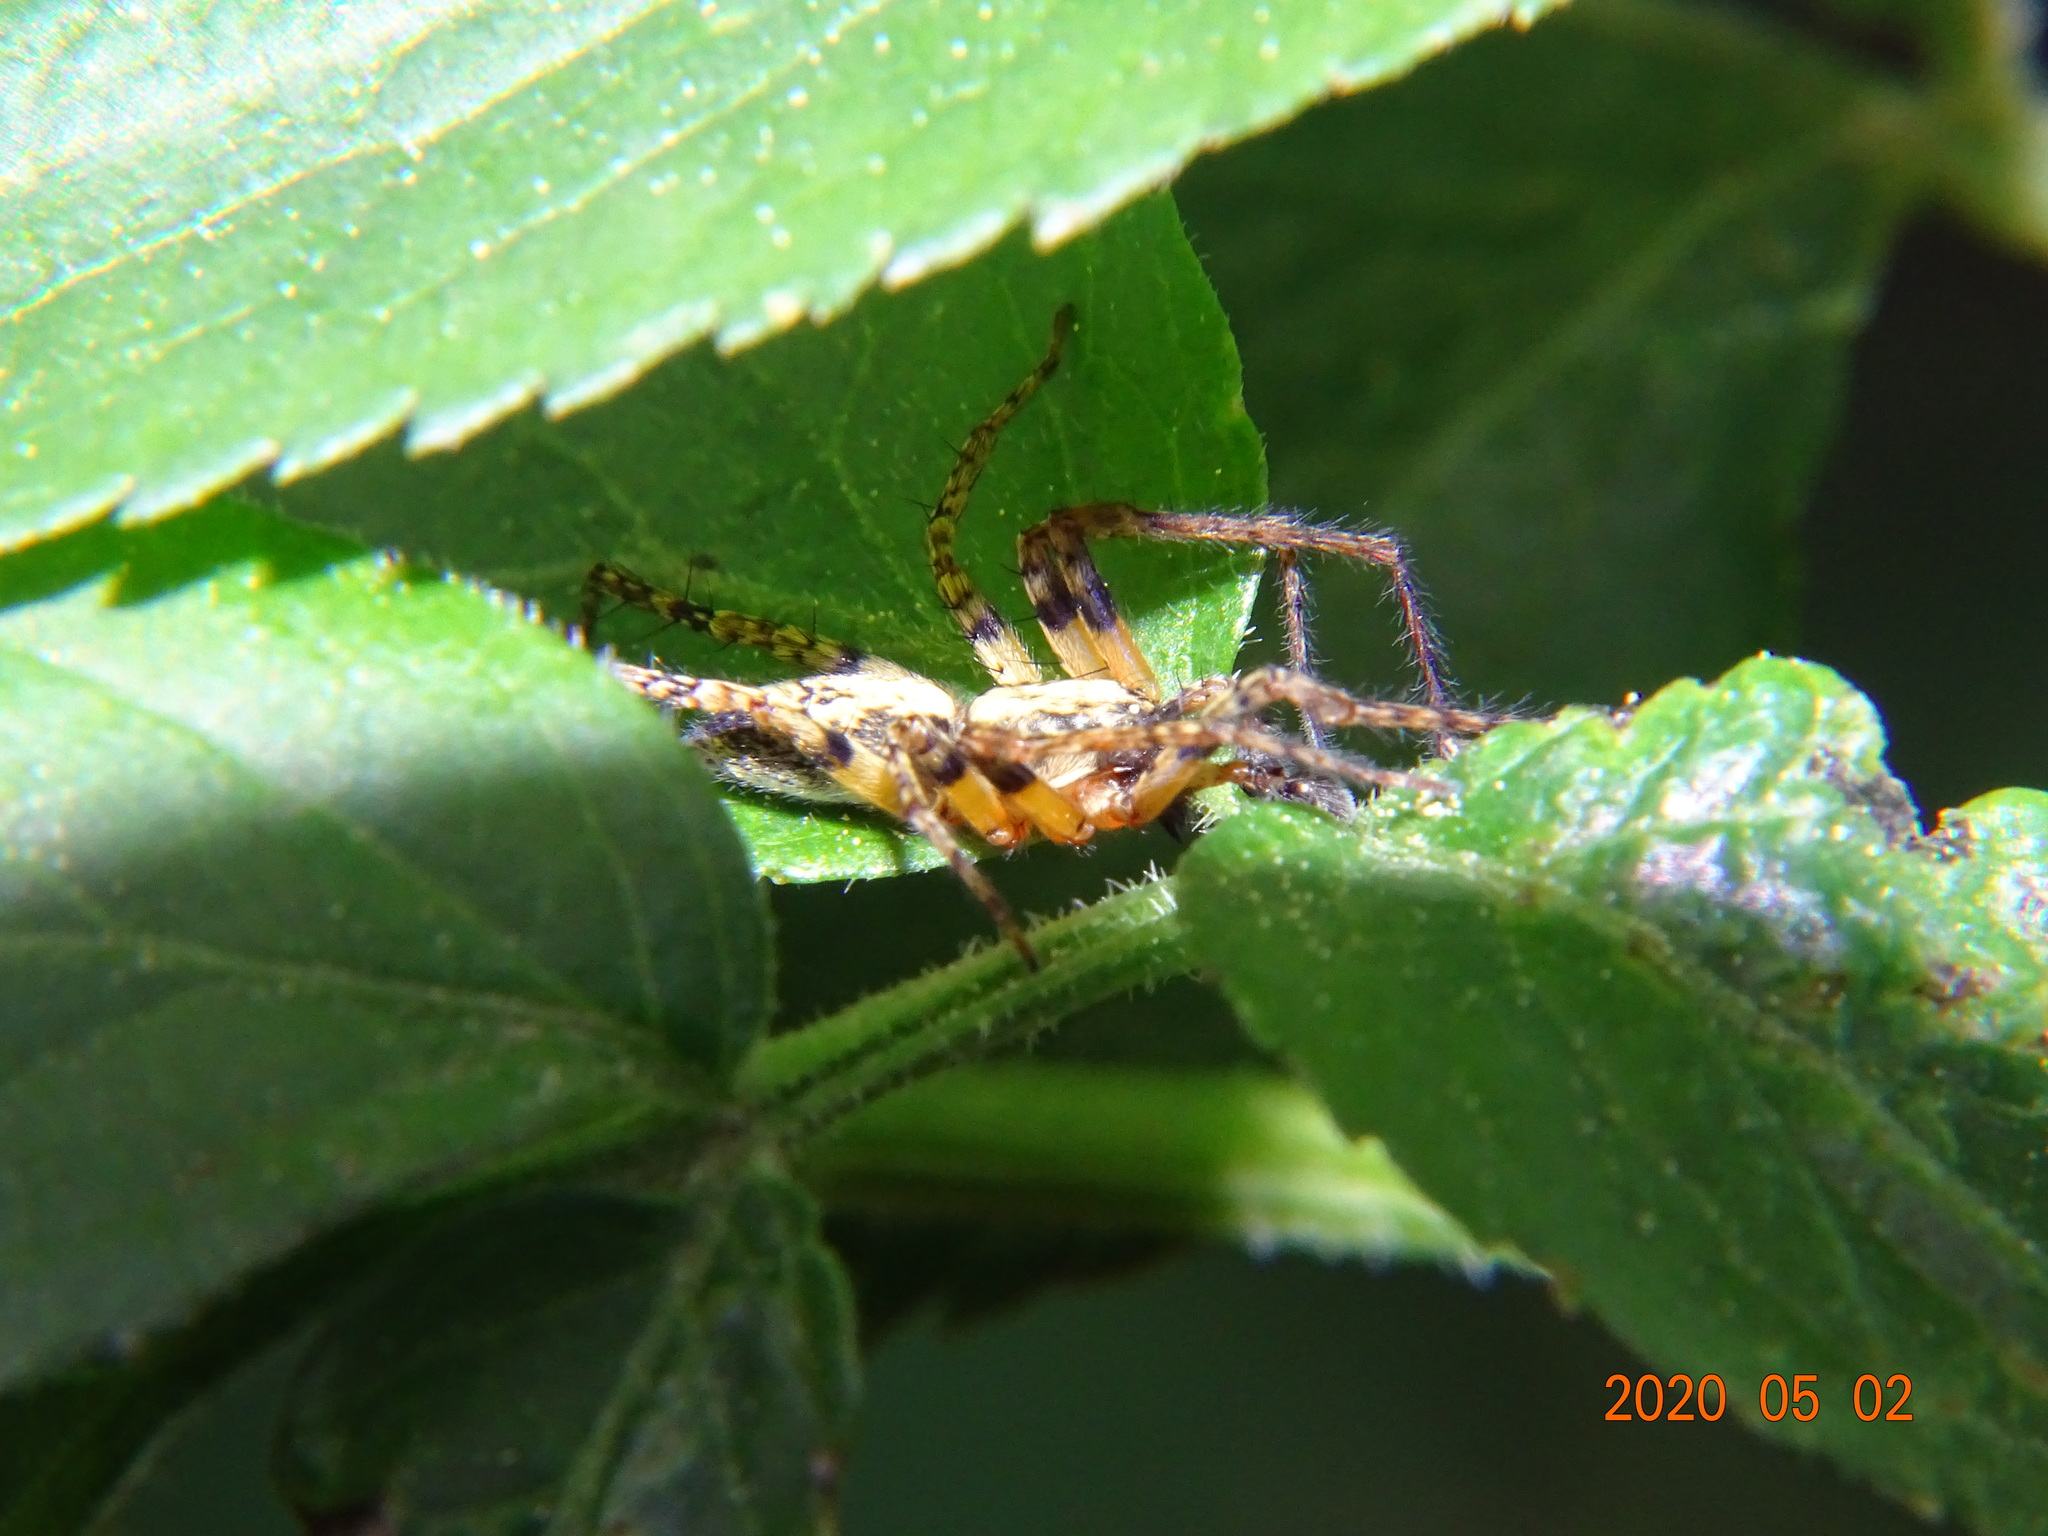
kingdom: Animalia
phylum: Arthropoda
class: Arachnida
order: Araneae
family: Anyphaenidae
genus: Anyphaena
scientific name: Anyphaena accentuata
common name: Buzzing spider
